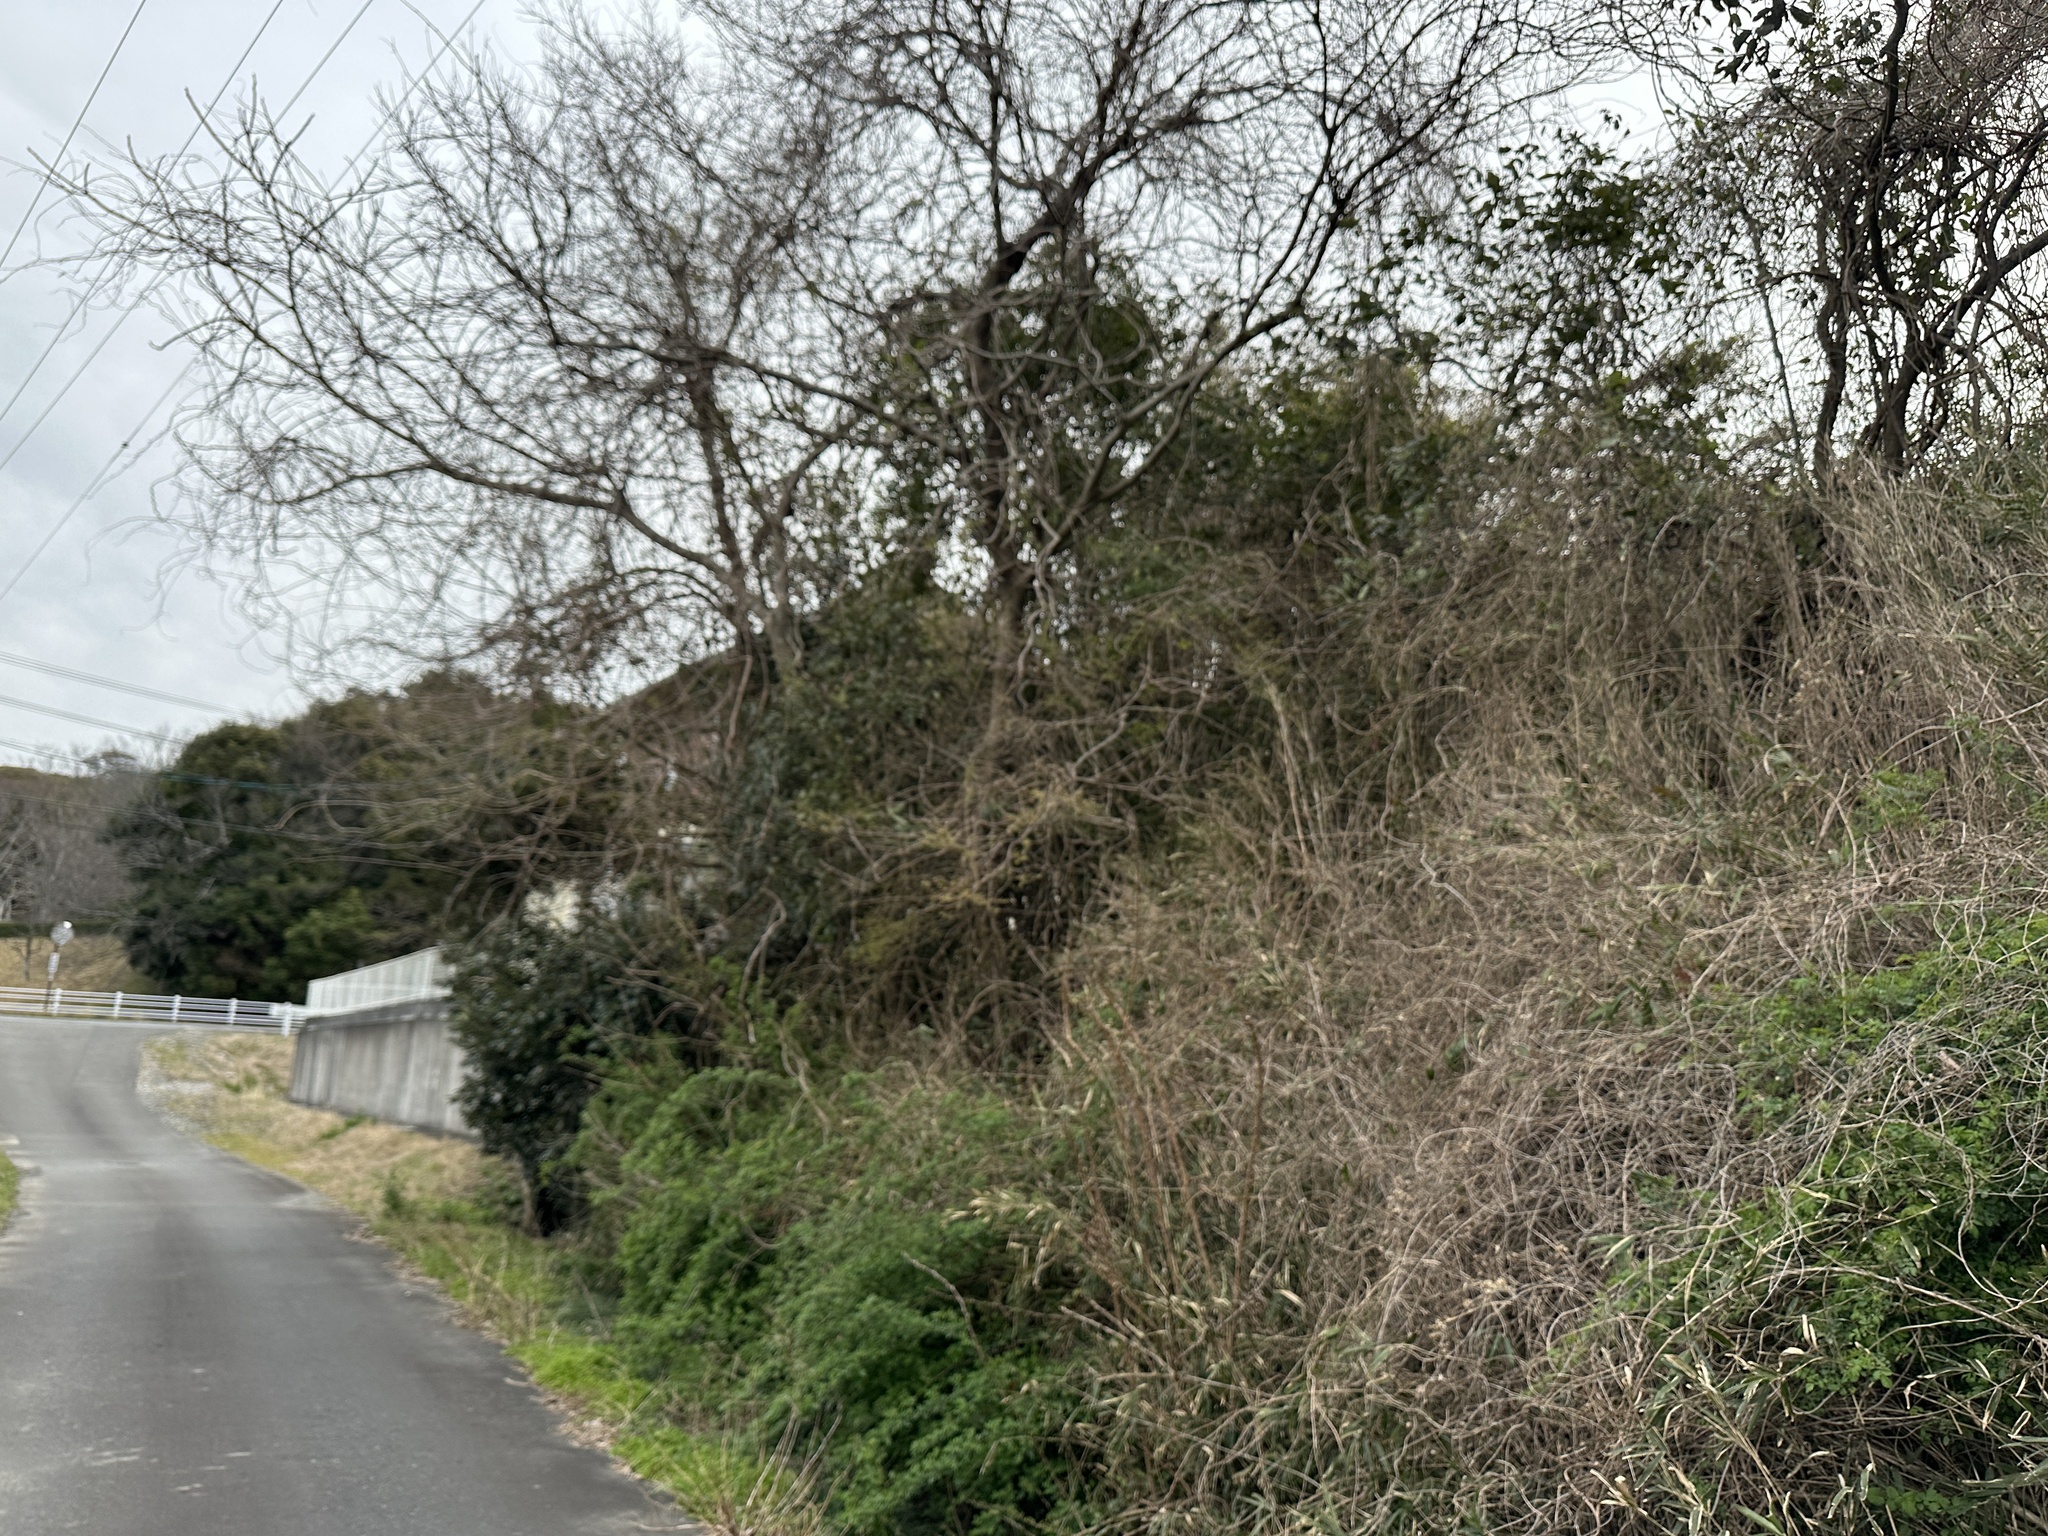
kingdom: Animalia
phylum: Chordata
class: Aves
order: Passeriformes
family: Cettiidae
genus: Horornis
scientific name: Horornis diphone
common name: Japanese bush warbler
